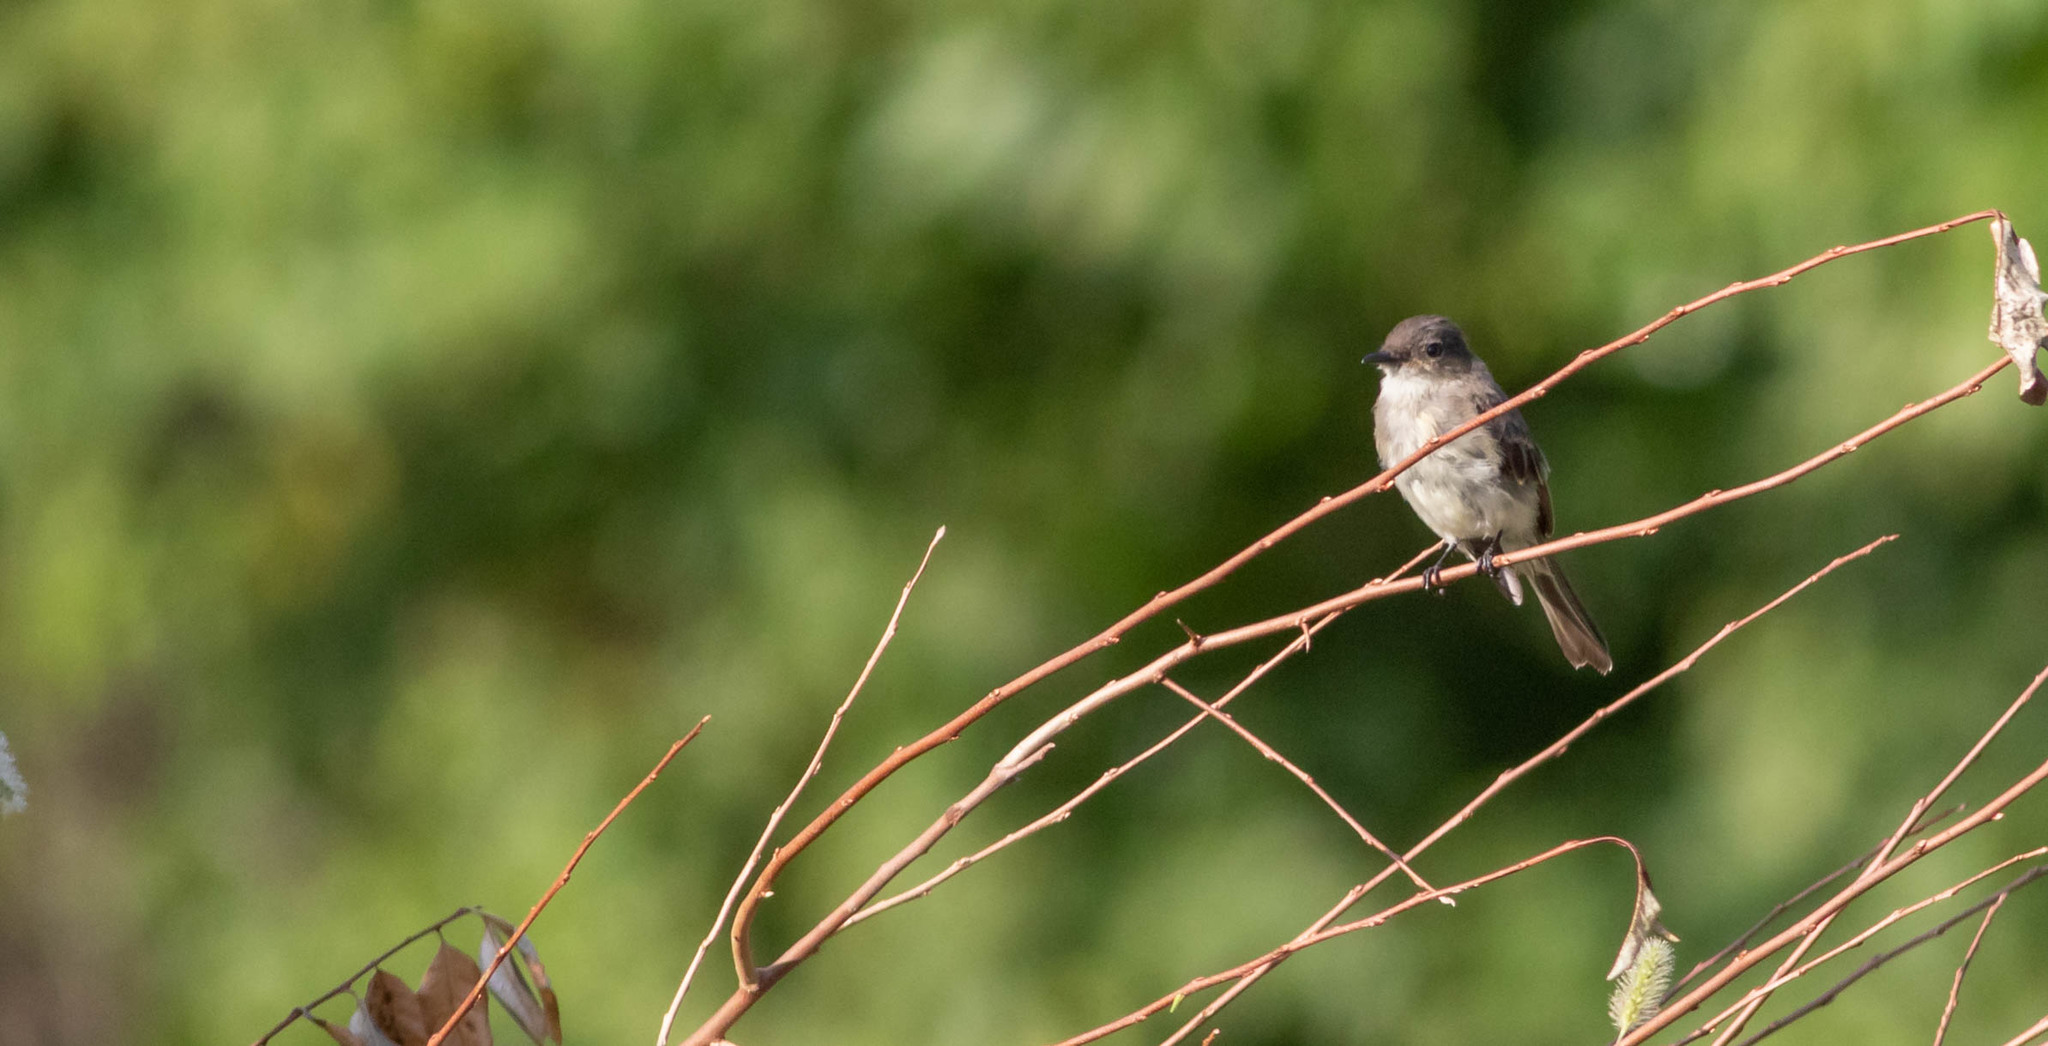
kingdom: Animalia
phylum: Chordata
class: Aves
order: Passeriformes
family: Tyrannidae
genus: Sayornis
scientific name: Sayornis phoebe
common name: Eastern phoebe
